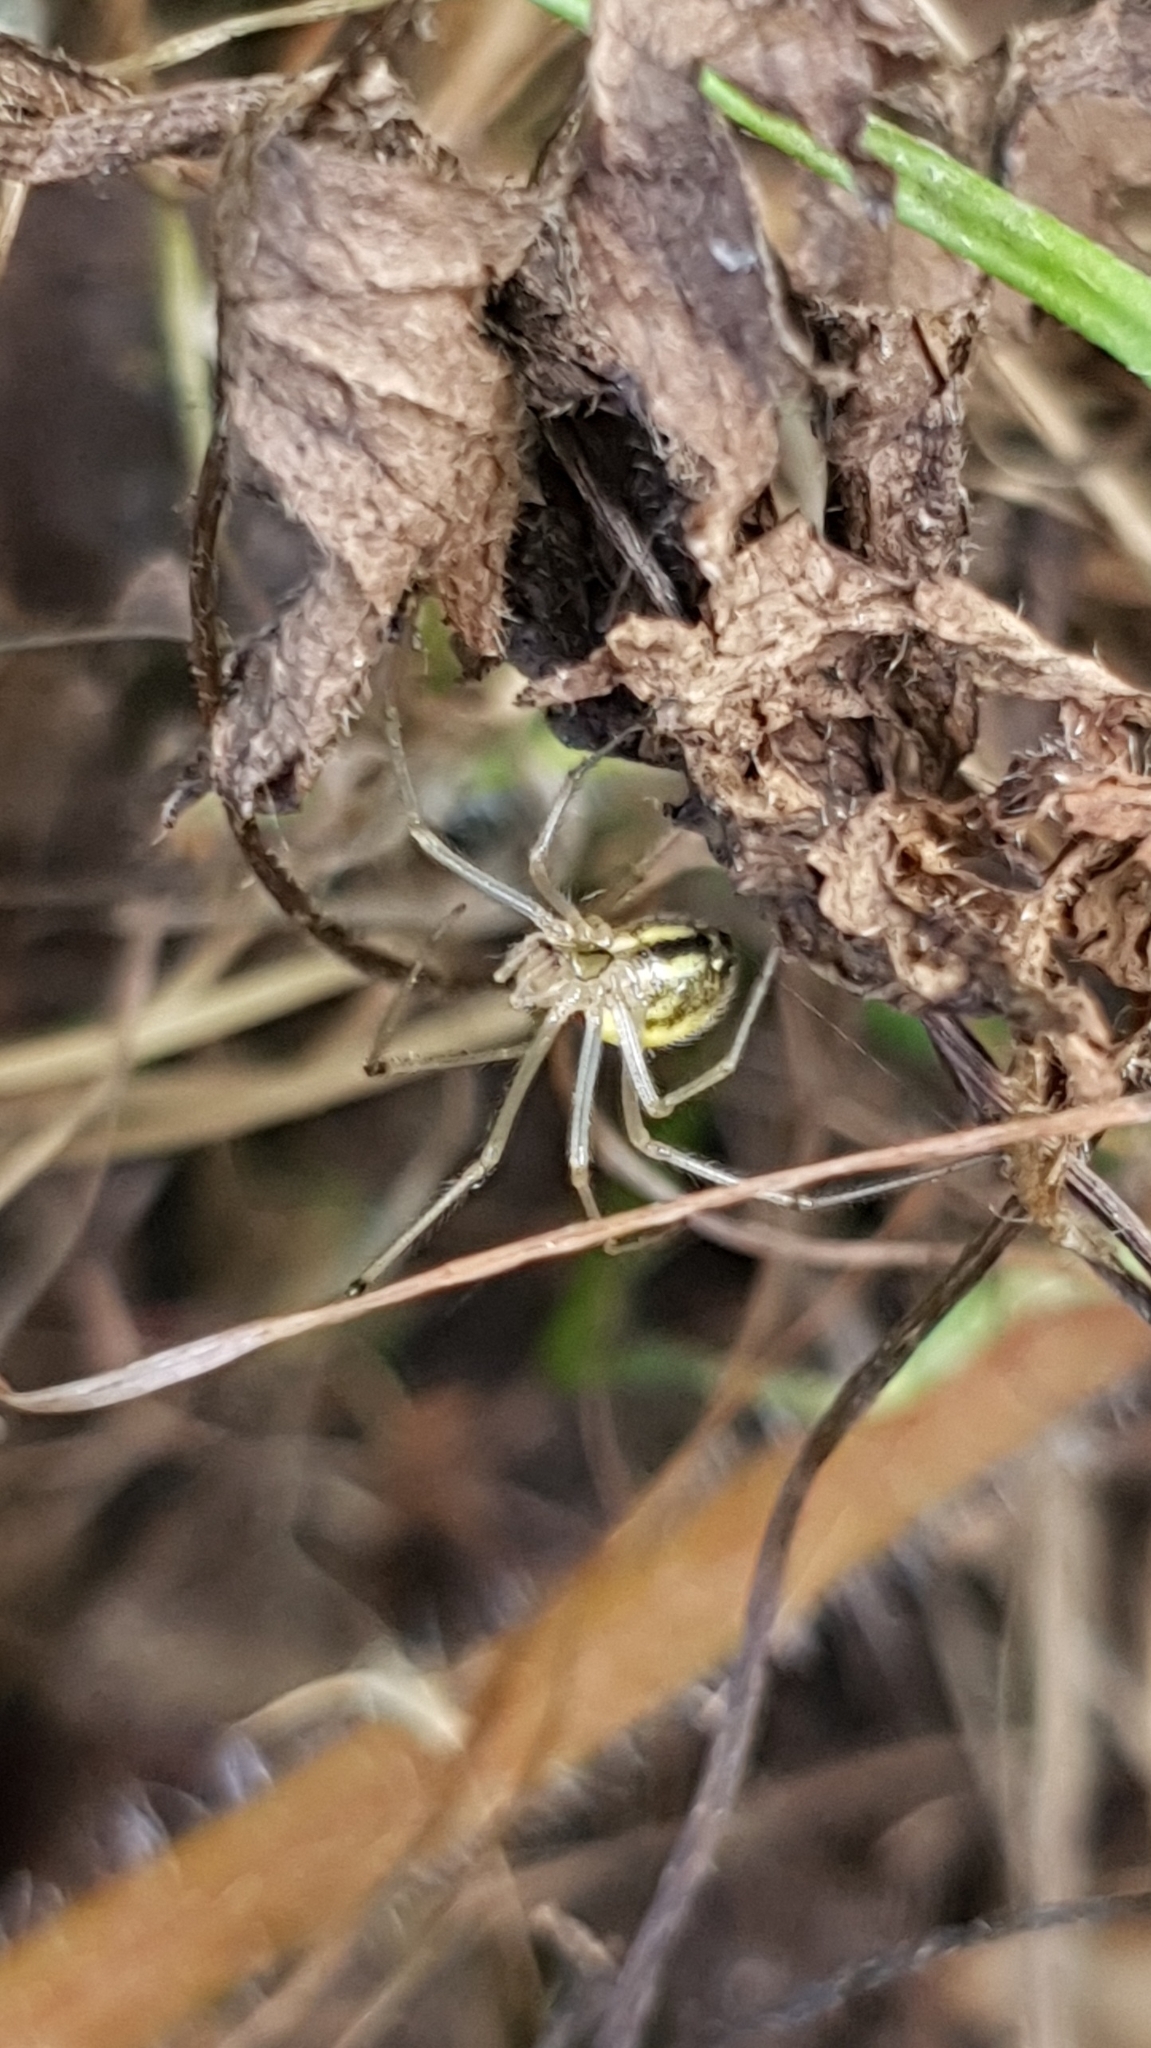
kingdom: Animalia
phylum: Arthropoda
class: Arachnida
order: Araneae
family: Theridiidae
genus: Enoplognatha
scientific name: Enoplognatha ovata
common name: Common candy-striped spider
